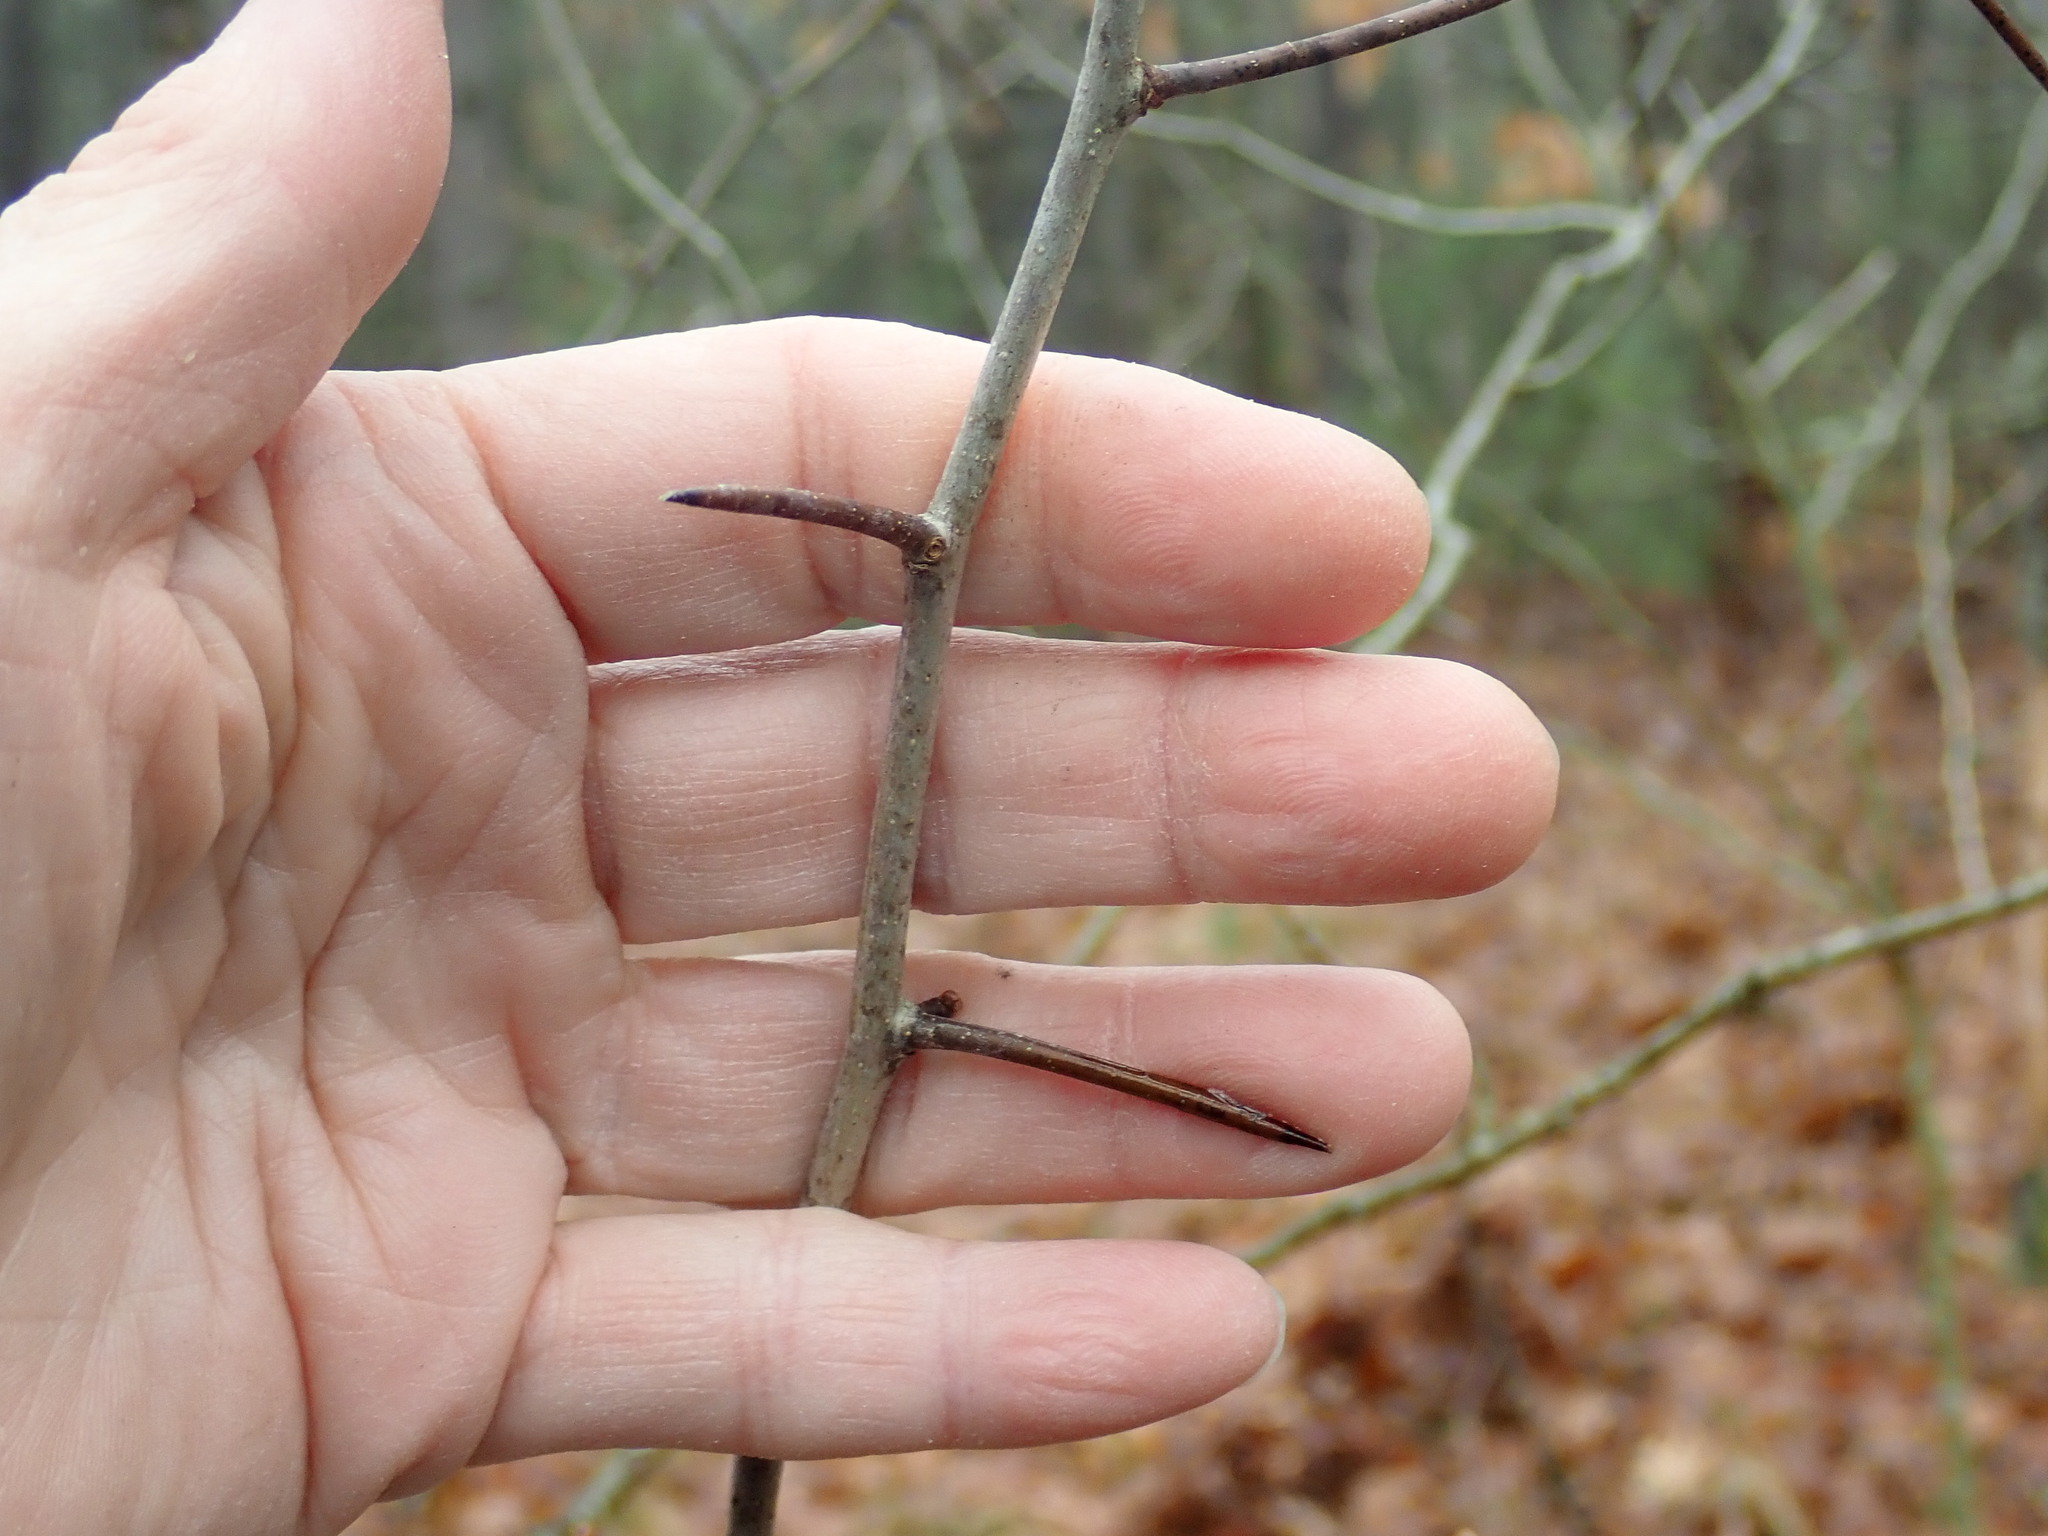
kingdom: Plantae
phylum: Tracheophyta
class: Magnoliopsida
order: Rosales
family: Rosaceae
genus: Crataegus
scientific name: Crataegus
